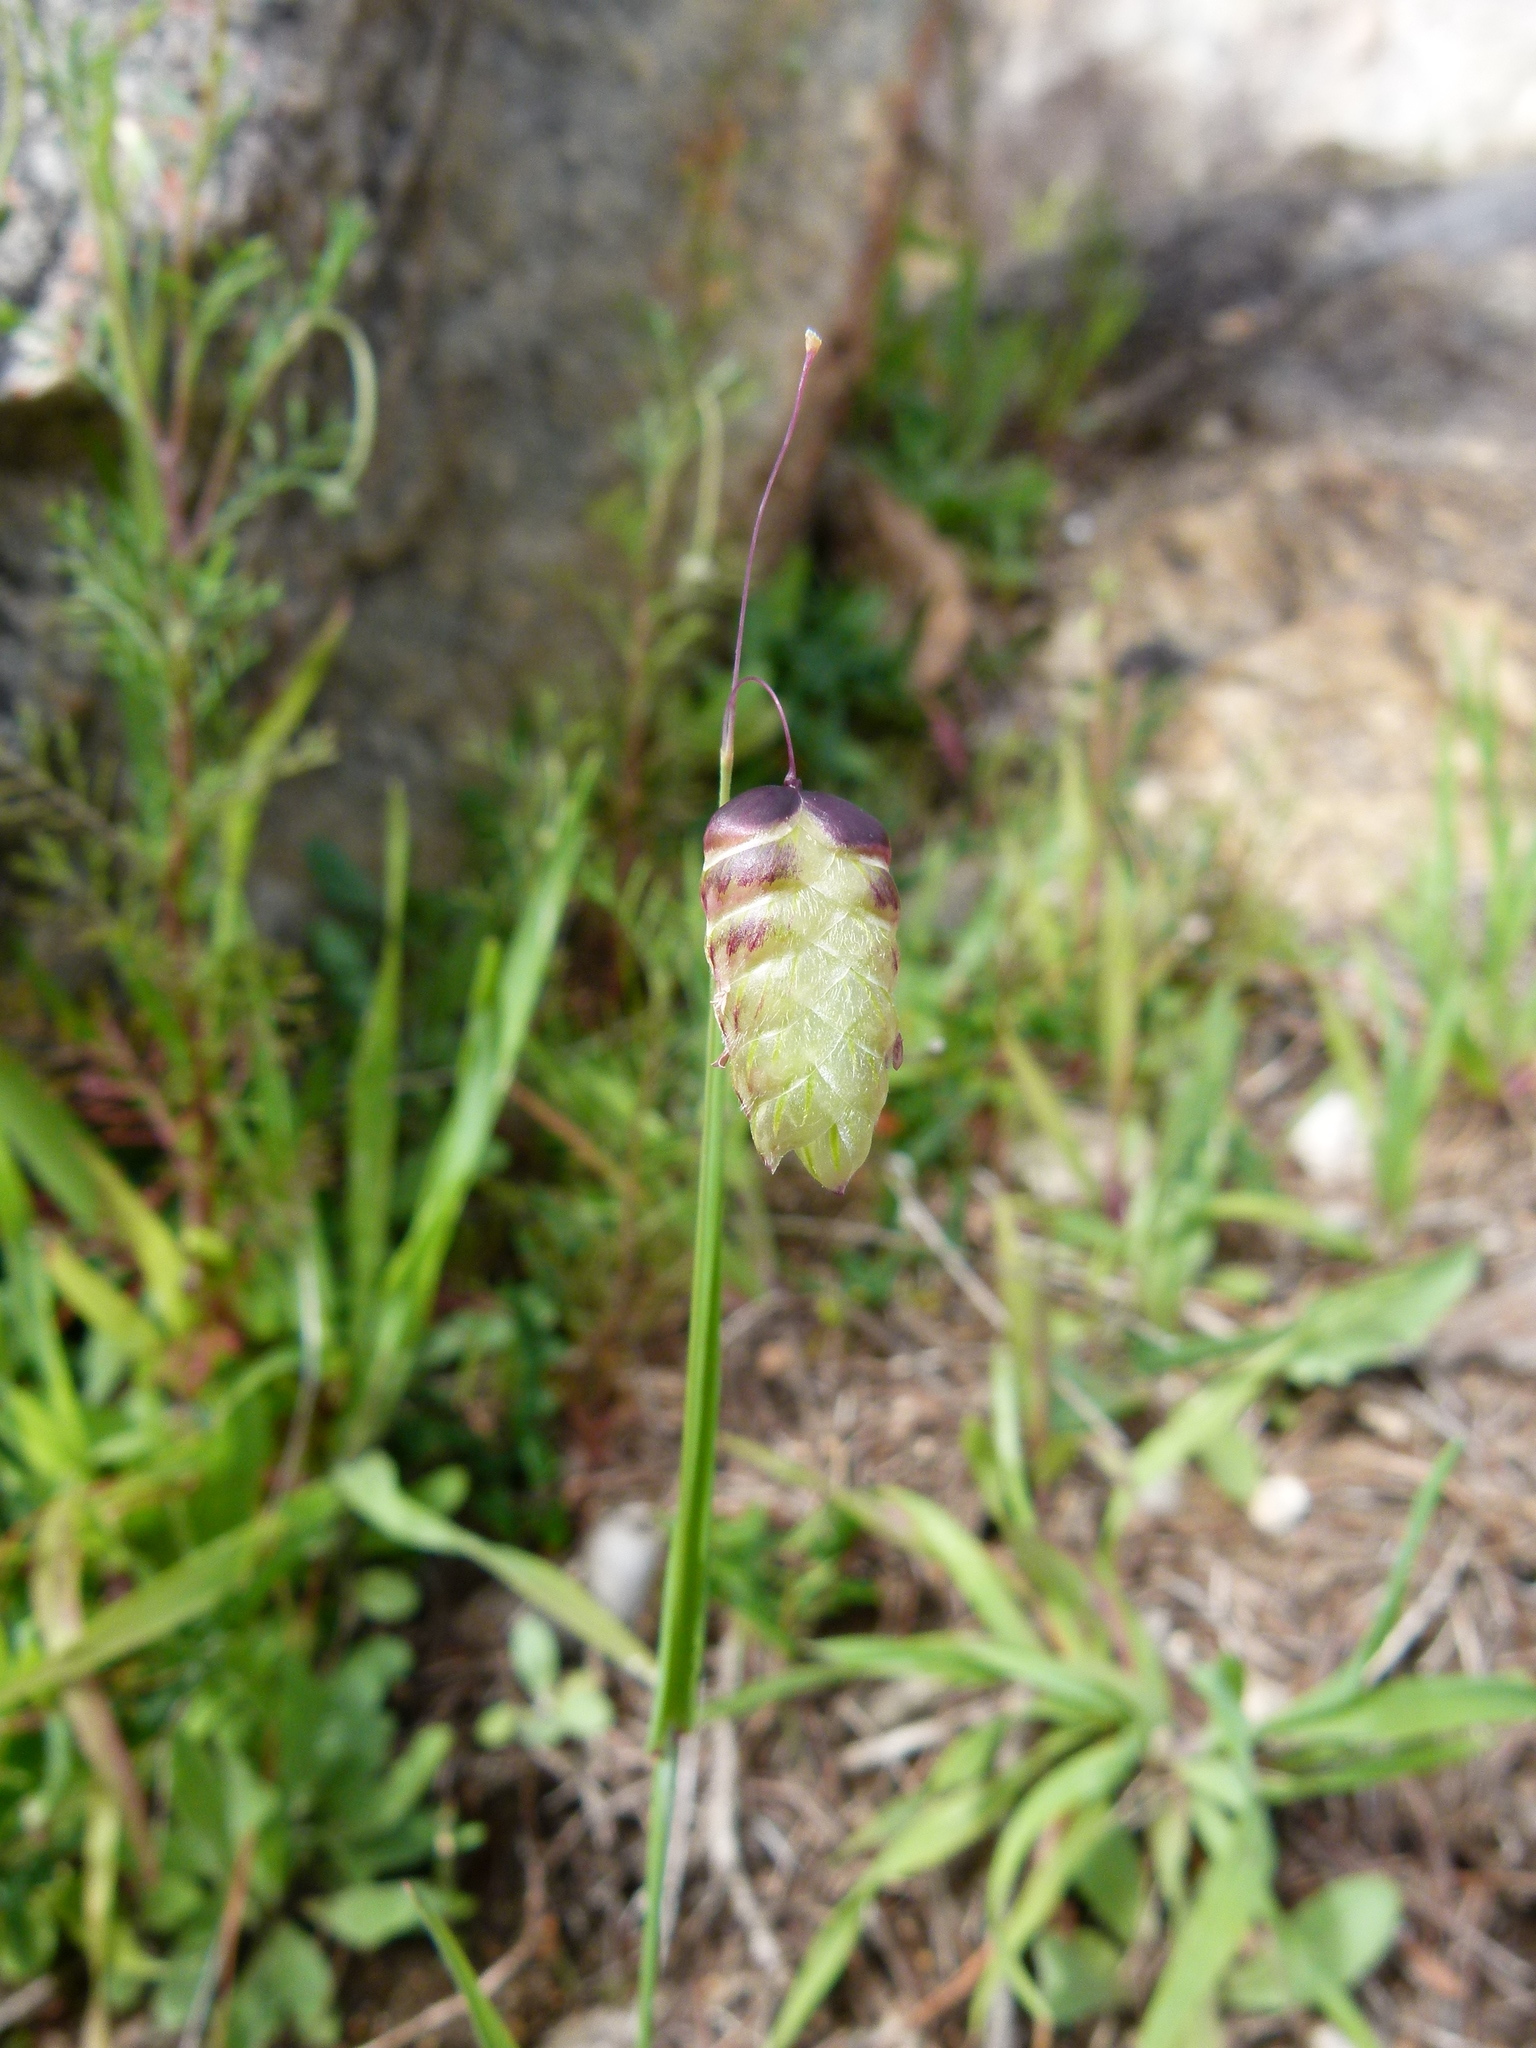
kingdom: Plantae
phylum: Tracheophyta
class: Liliopsida
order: Poales
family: Poaceae
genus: Briza
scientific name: Briza maxima
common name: Big quakinggrass
